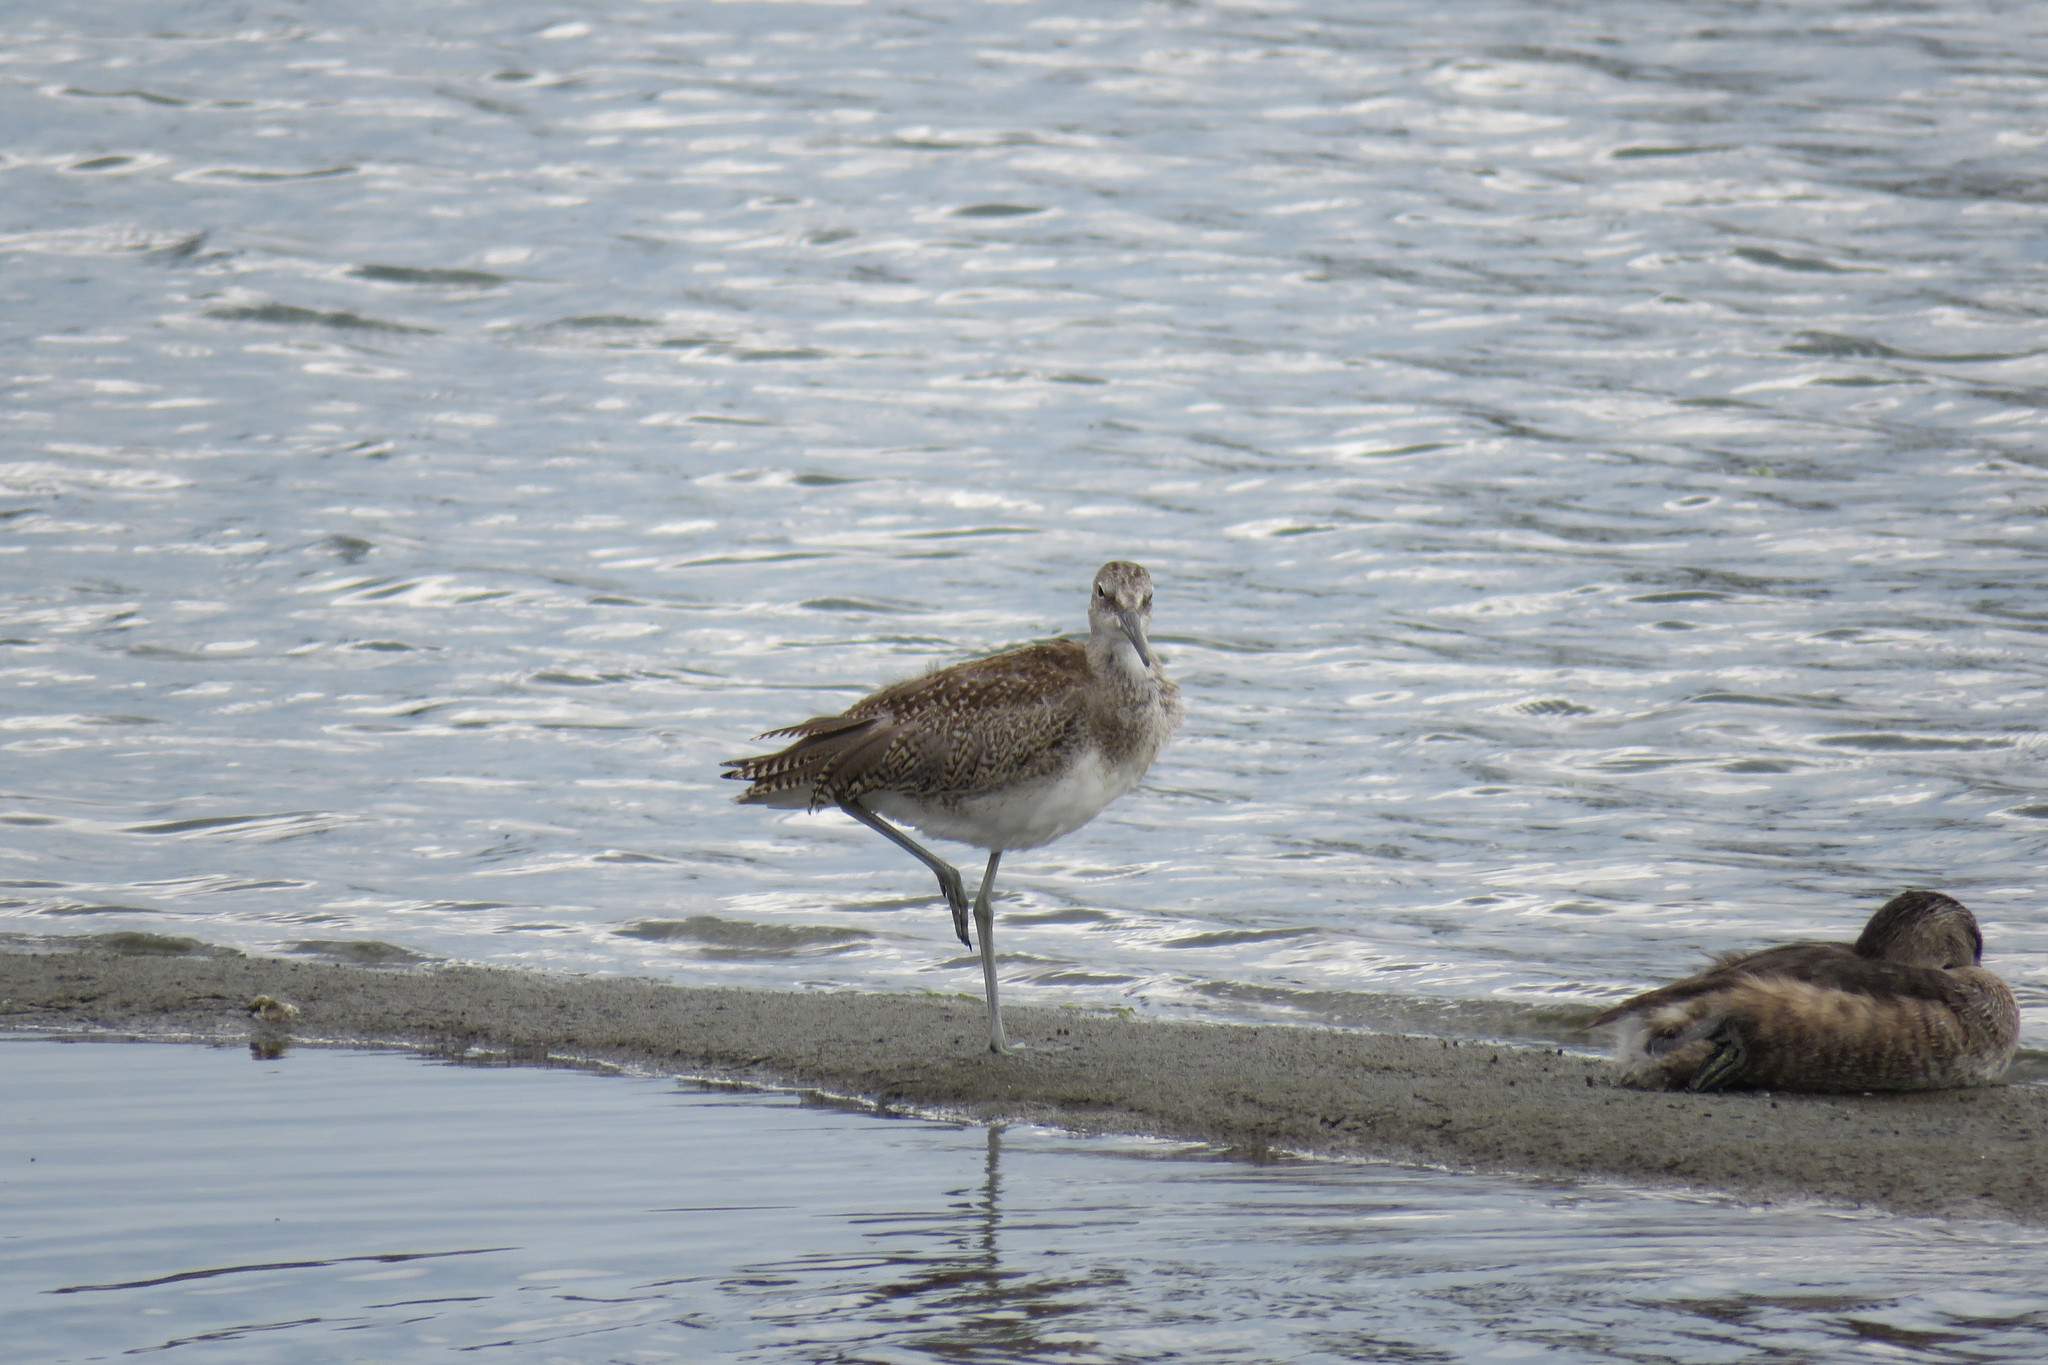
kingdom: Animalia
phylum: Chordata
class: Aves
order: Charadriiformes
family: Scolopacidae
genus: Tringa
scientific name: Tringa semipalmata
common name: Willet
